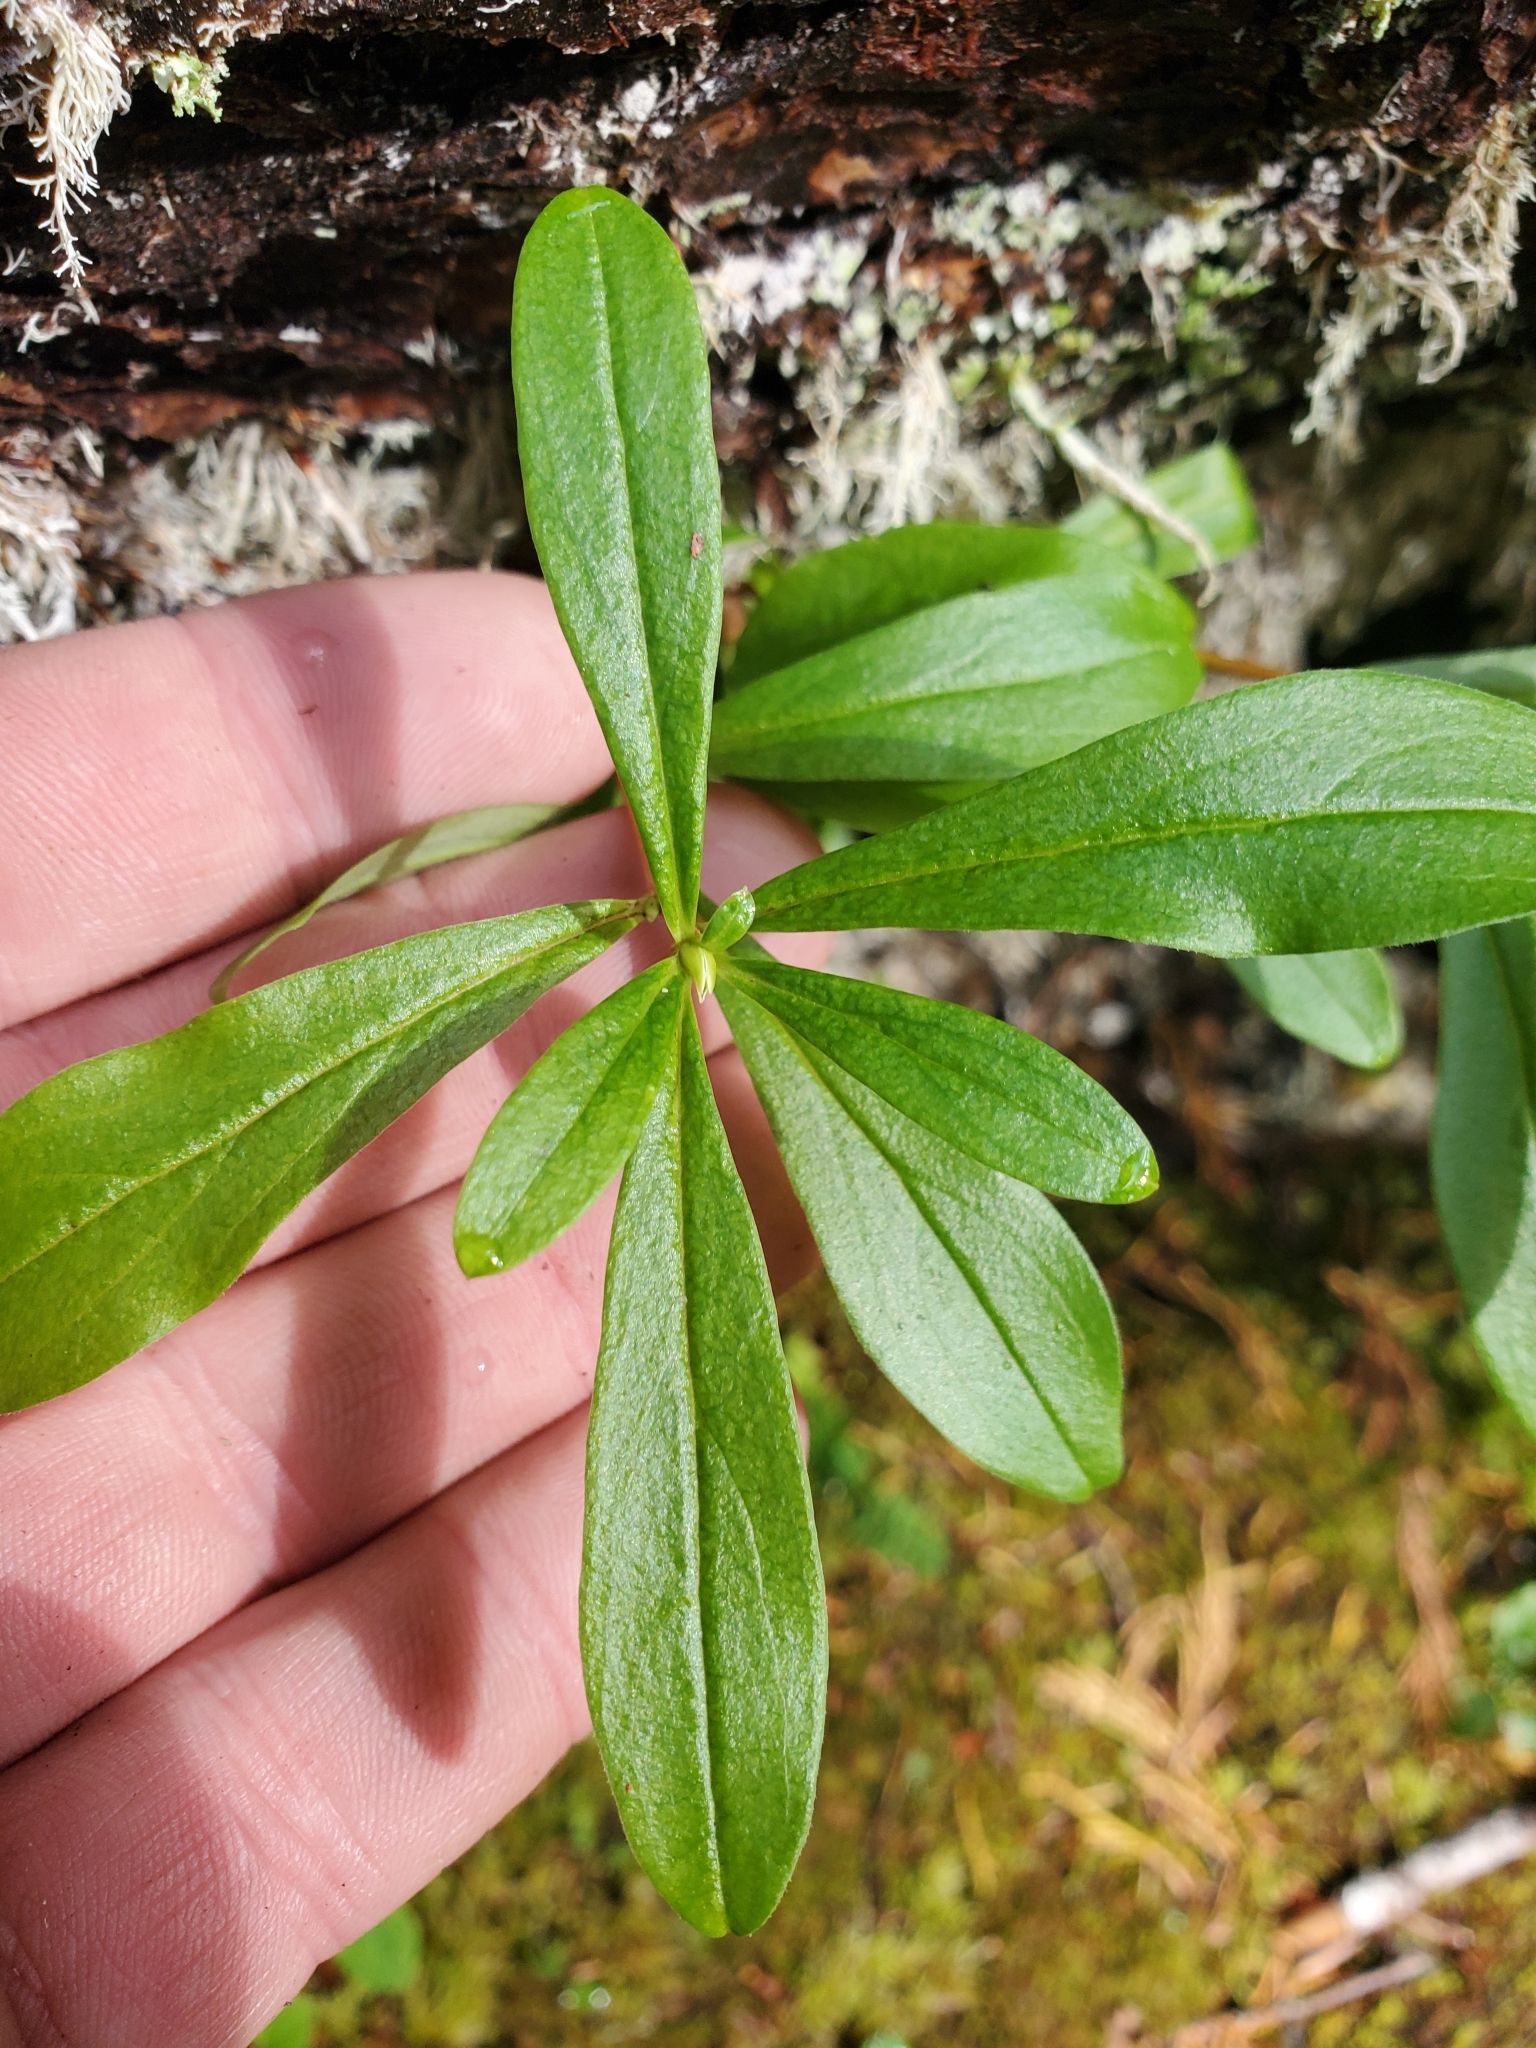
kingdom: Plantae
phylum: Tracheophyta
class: Magnoliopsida
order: Ericales
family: Ericaceae
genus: Elliottia
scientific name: Elliottia pyroliflora
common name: Copperbush
